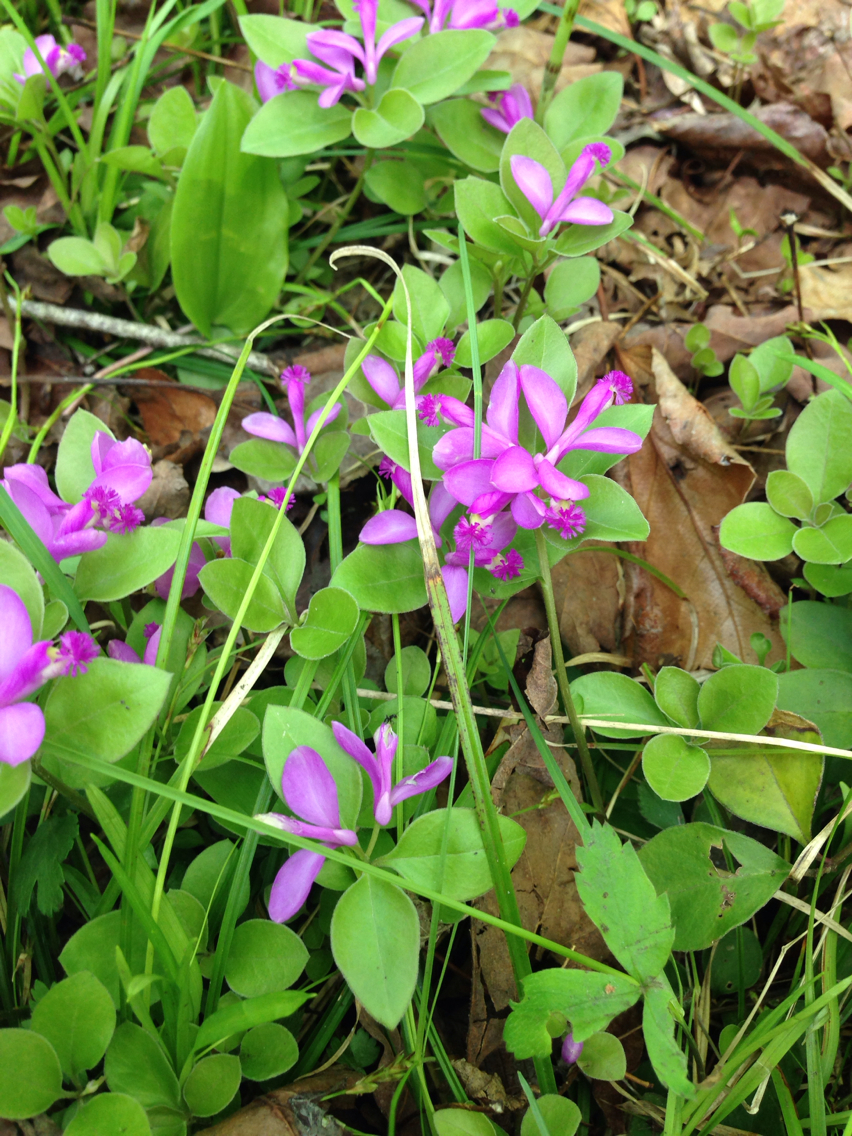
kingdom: Plantae
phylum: Tracheophyta
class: Magnoliopsida
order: Fabales
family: Polygalaceae
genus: Polygaloides
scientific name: Polygaloides paucifolia
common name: Bird-on-the-wing
